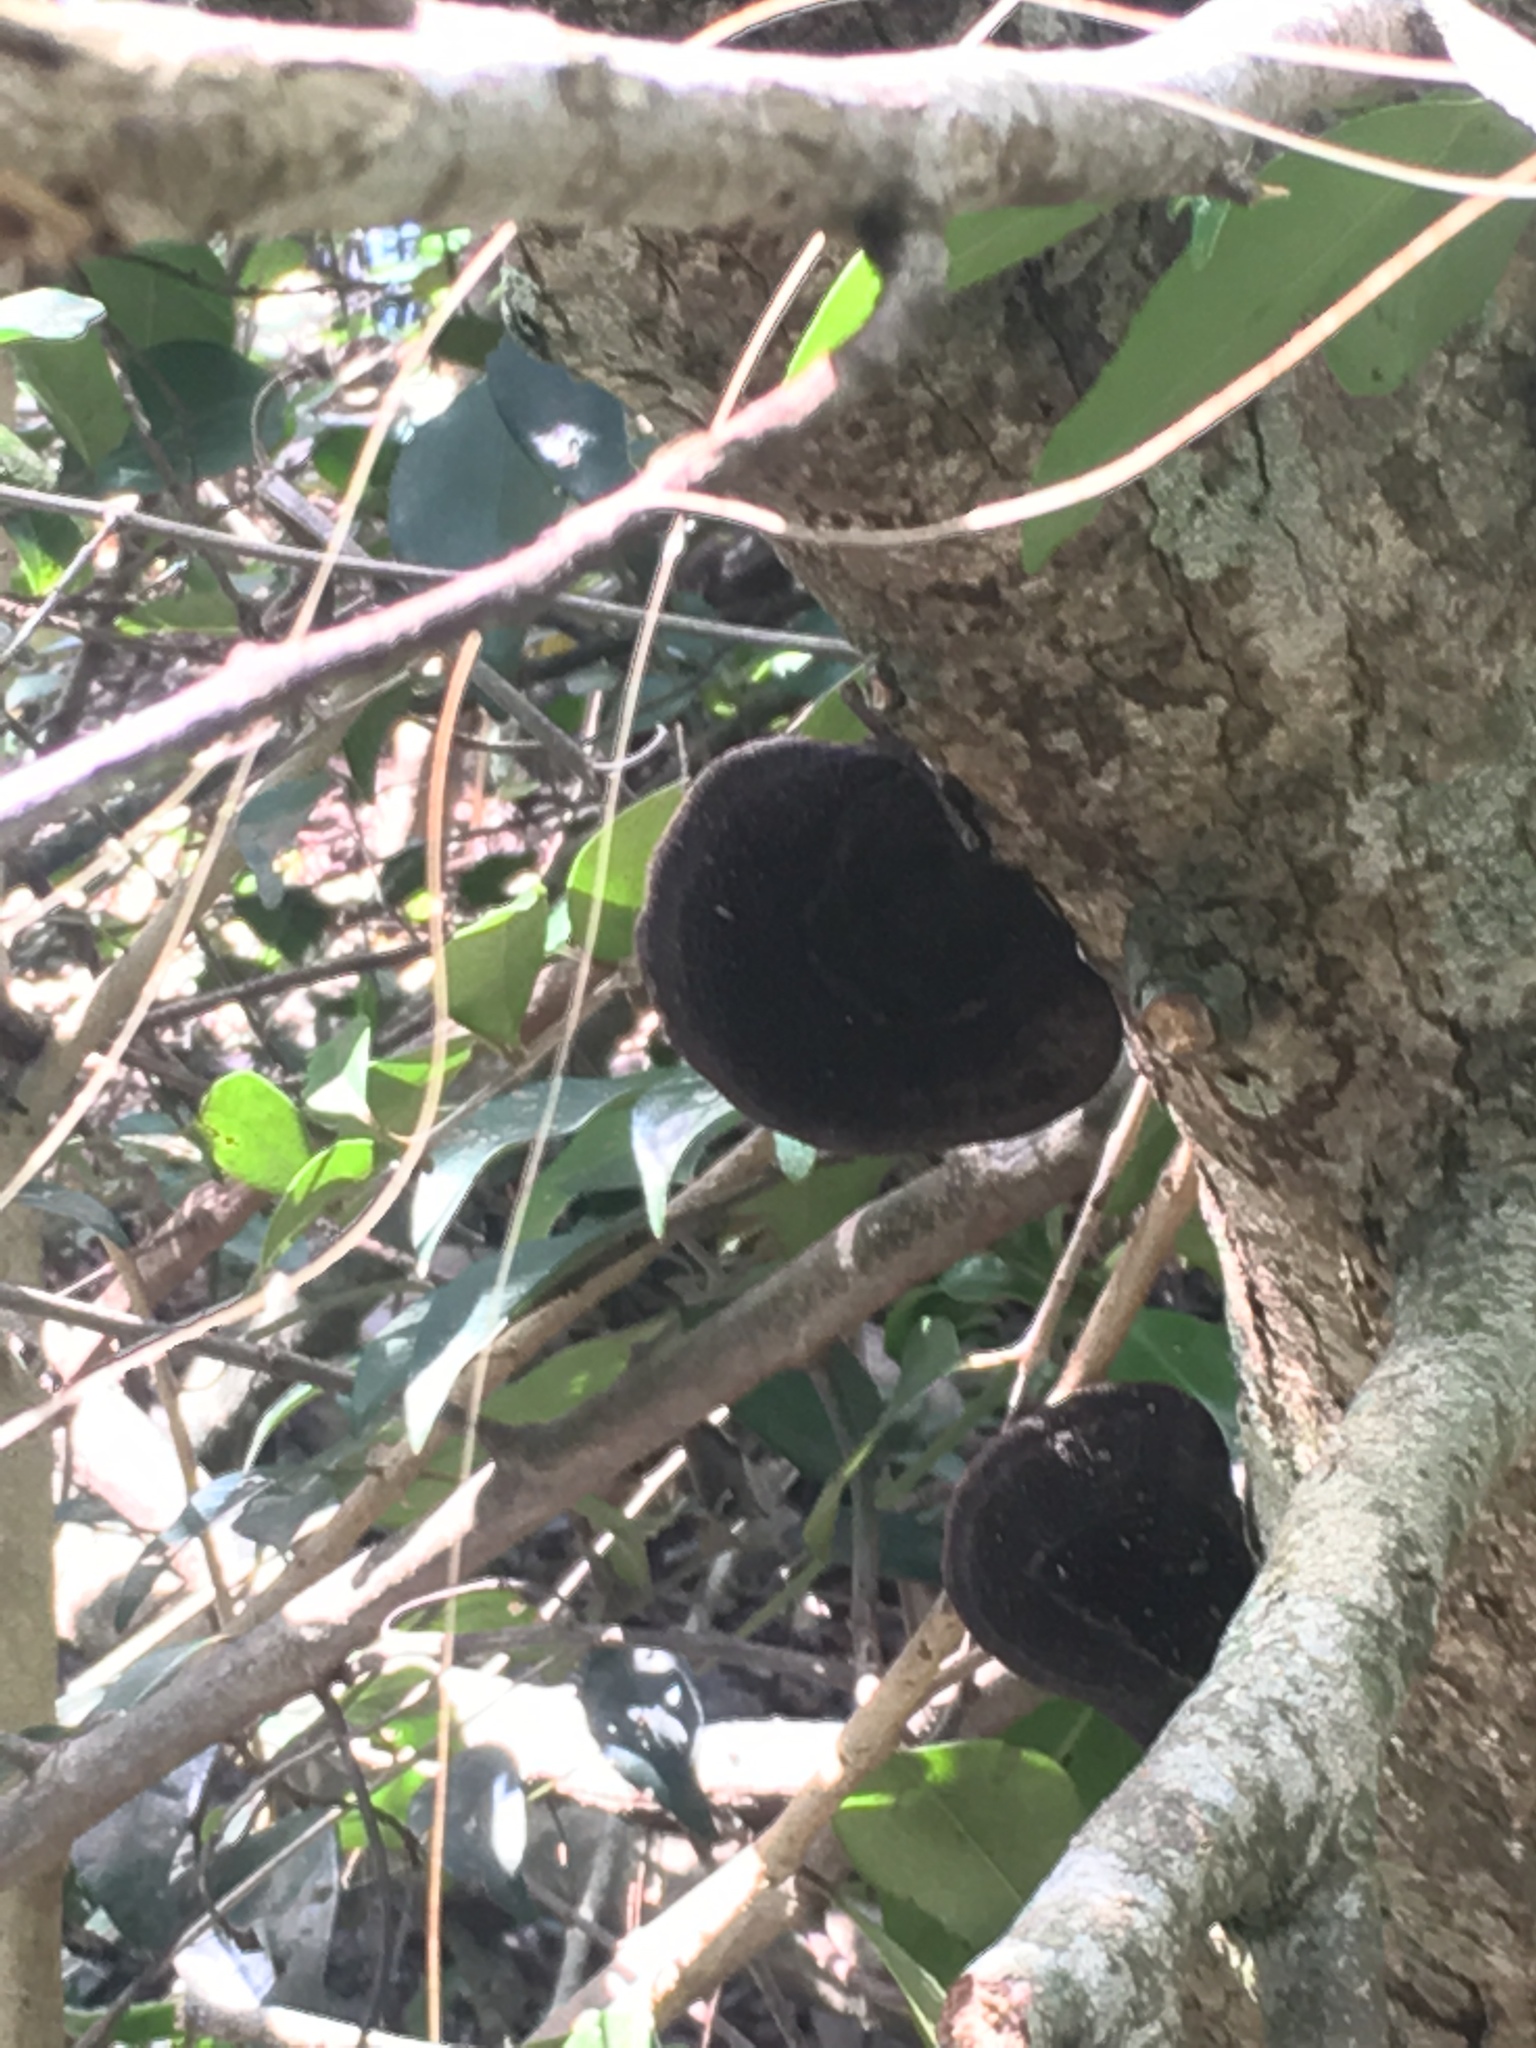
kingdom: Fungi
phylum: Basidiomycota
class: Agaricomycetes
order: Polyporales
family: Cerrenaceae
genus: Cerrena
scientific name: Cerrena hydnoides
